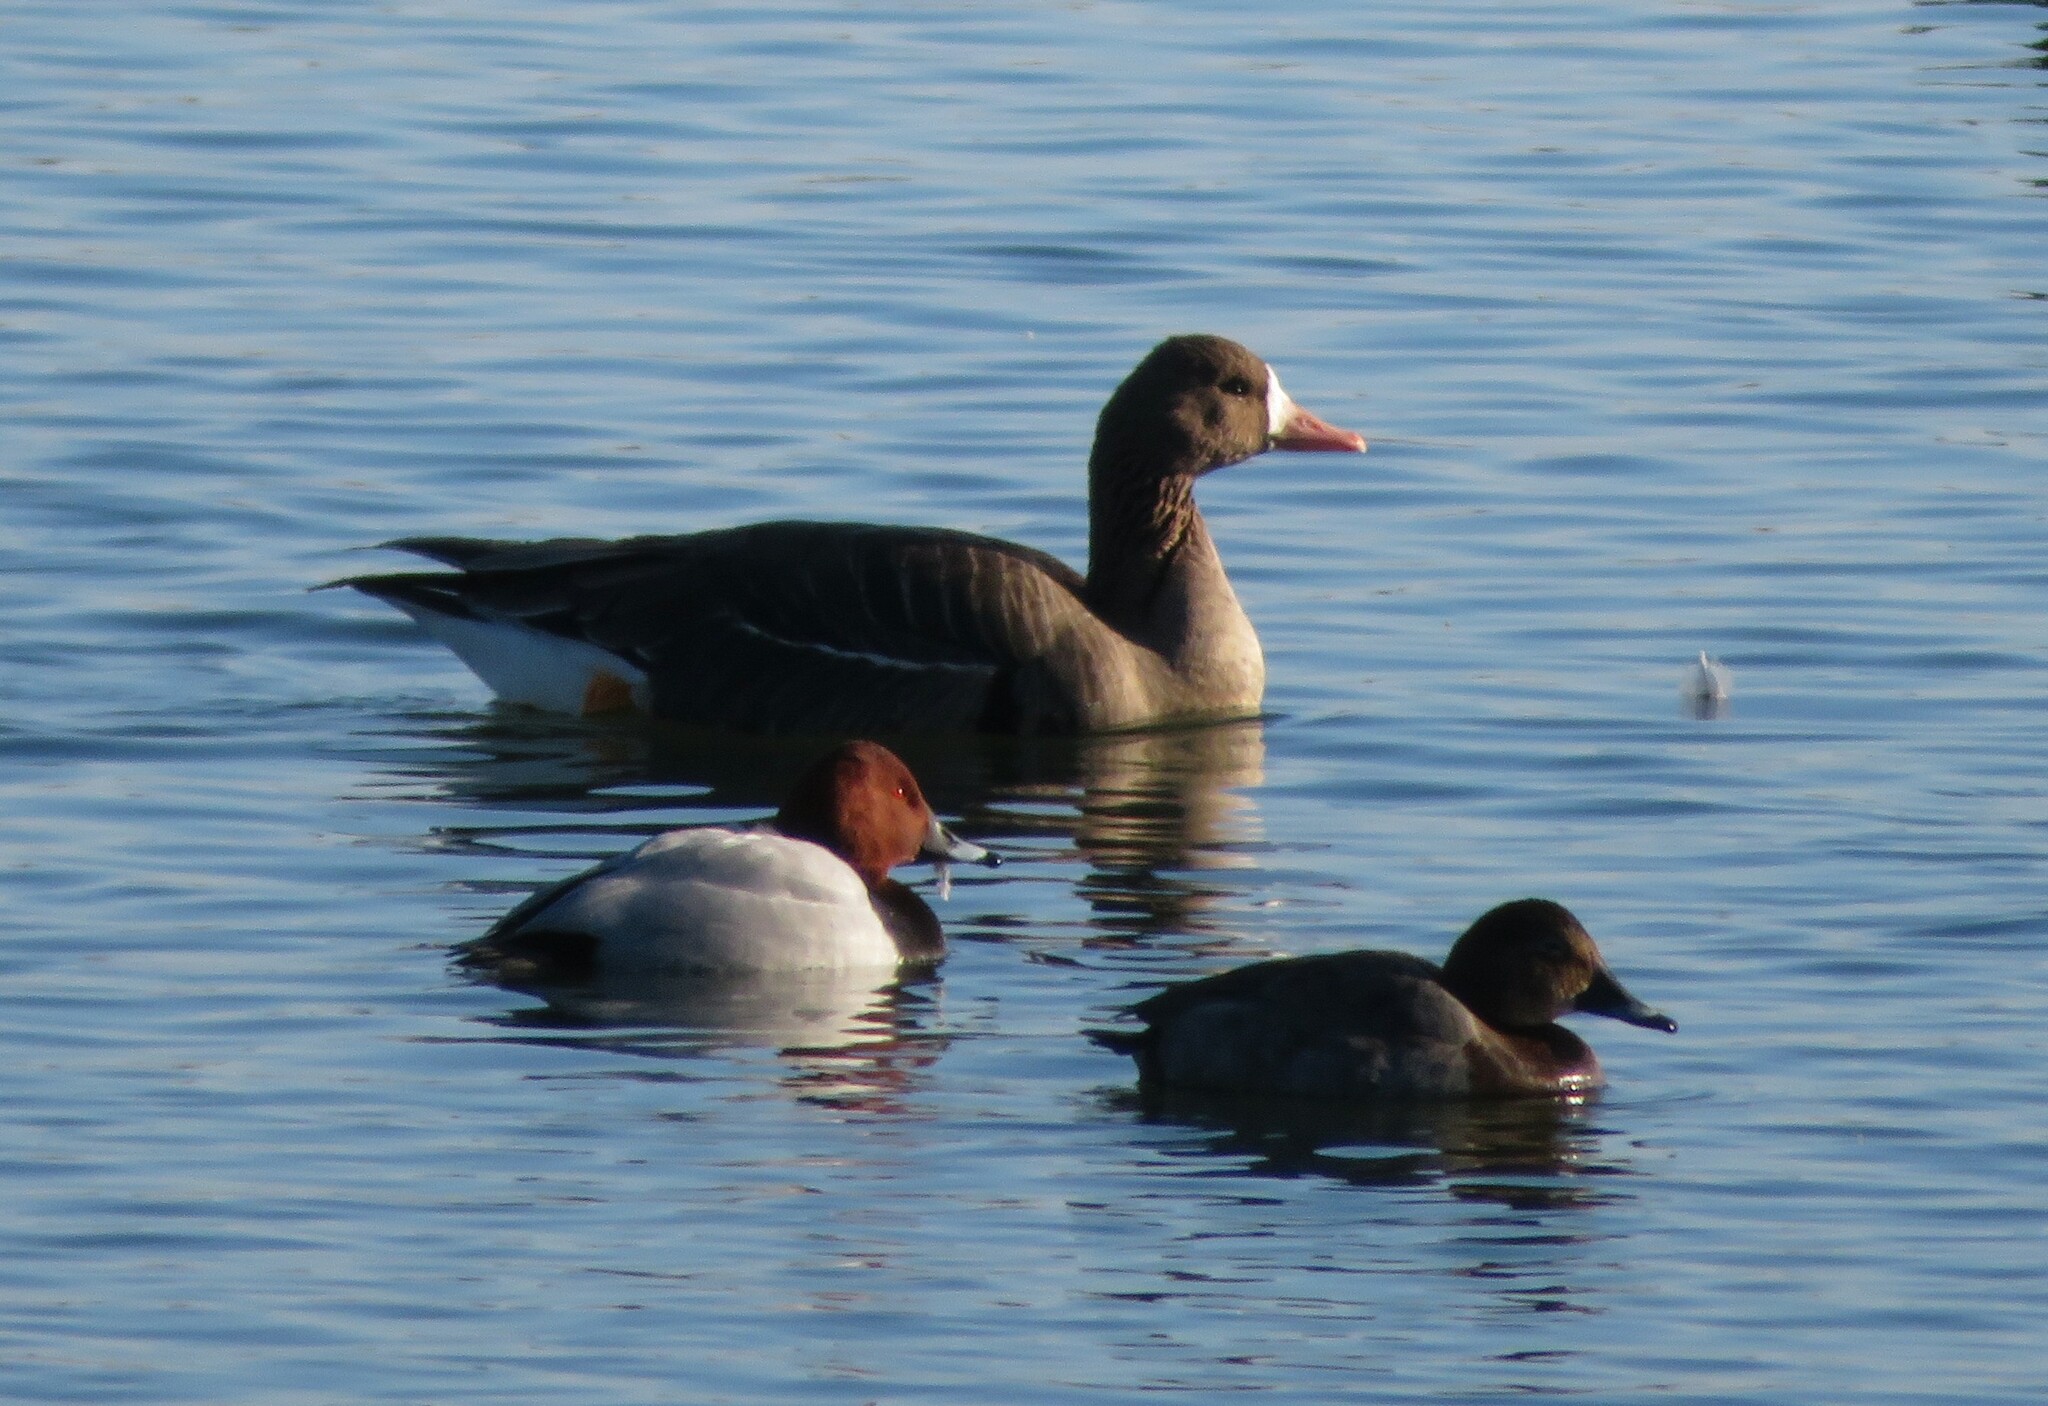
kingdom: Animalia
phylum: Chordata
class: Aves
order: Anseriformes
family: Anatidae
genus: Anser
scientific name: Anser albifrons
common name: Greater white-fronted goose
